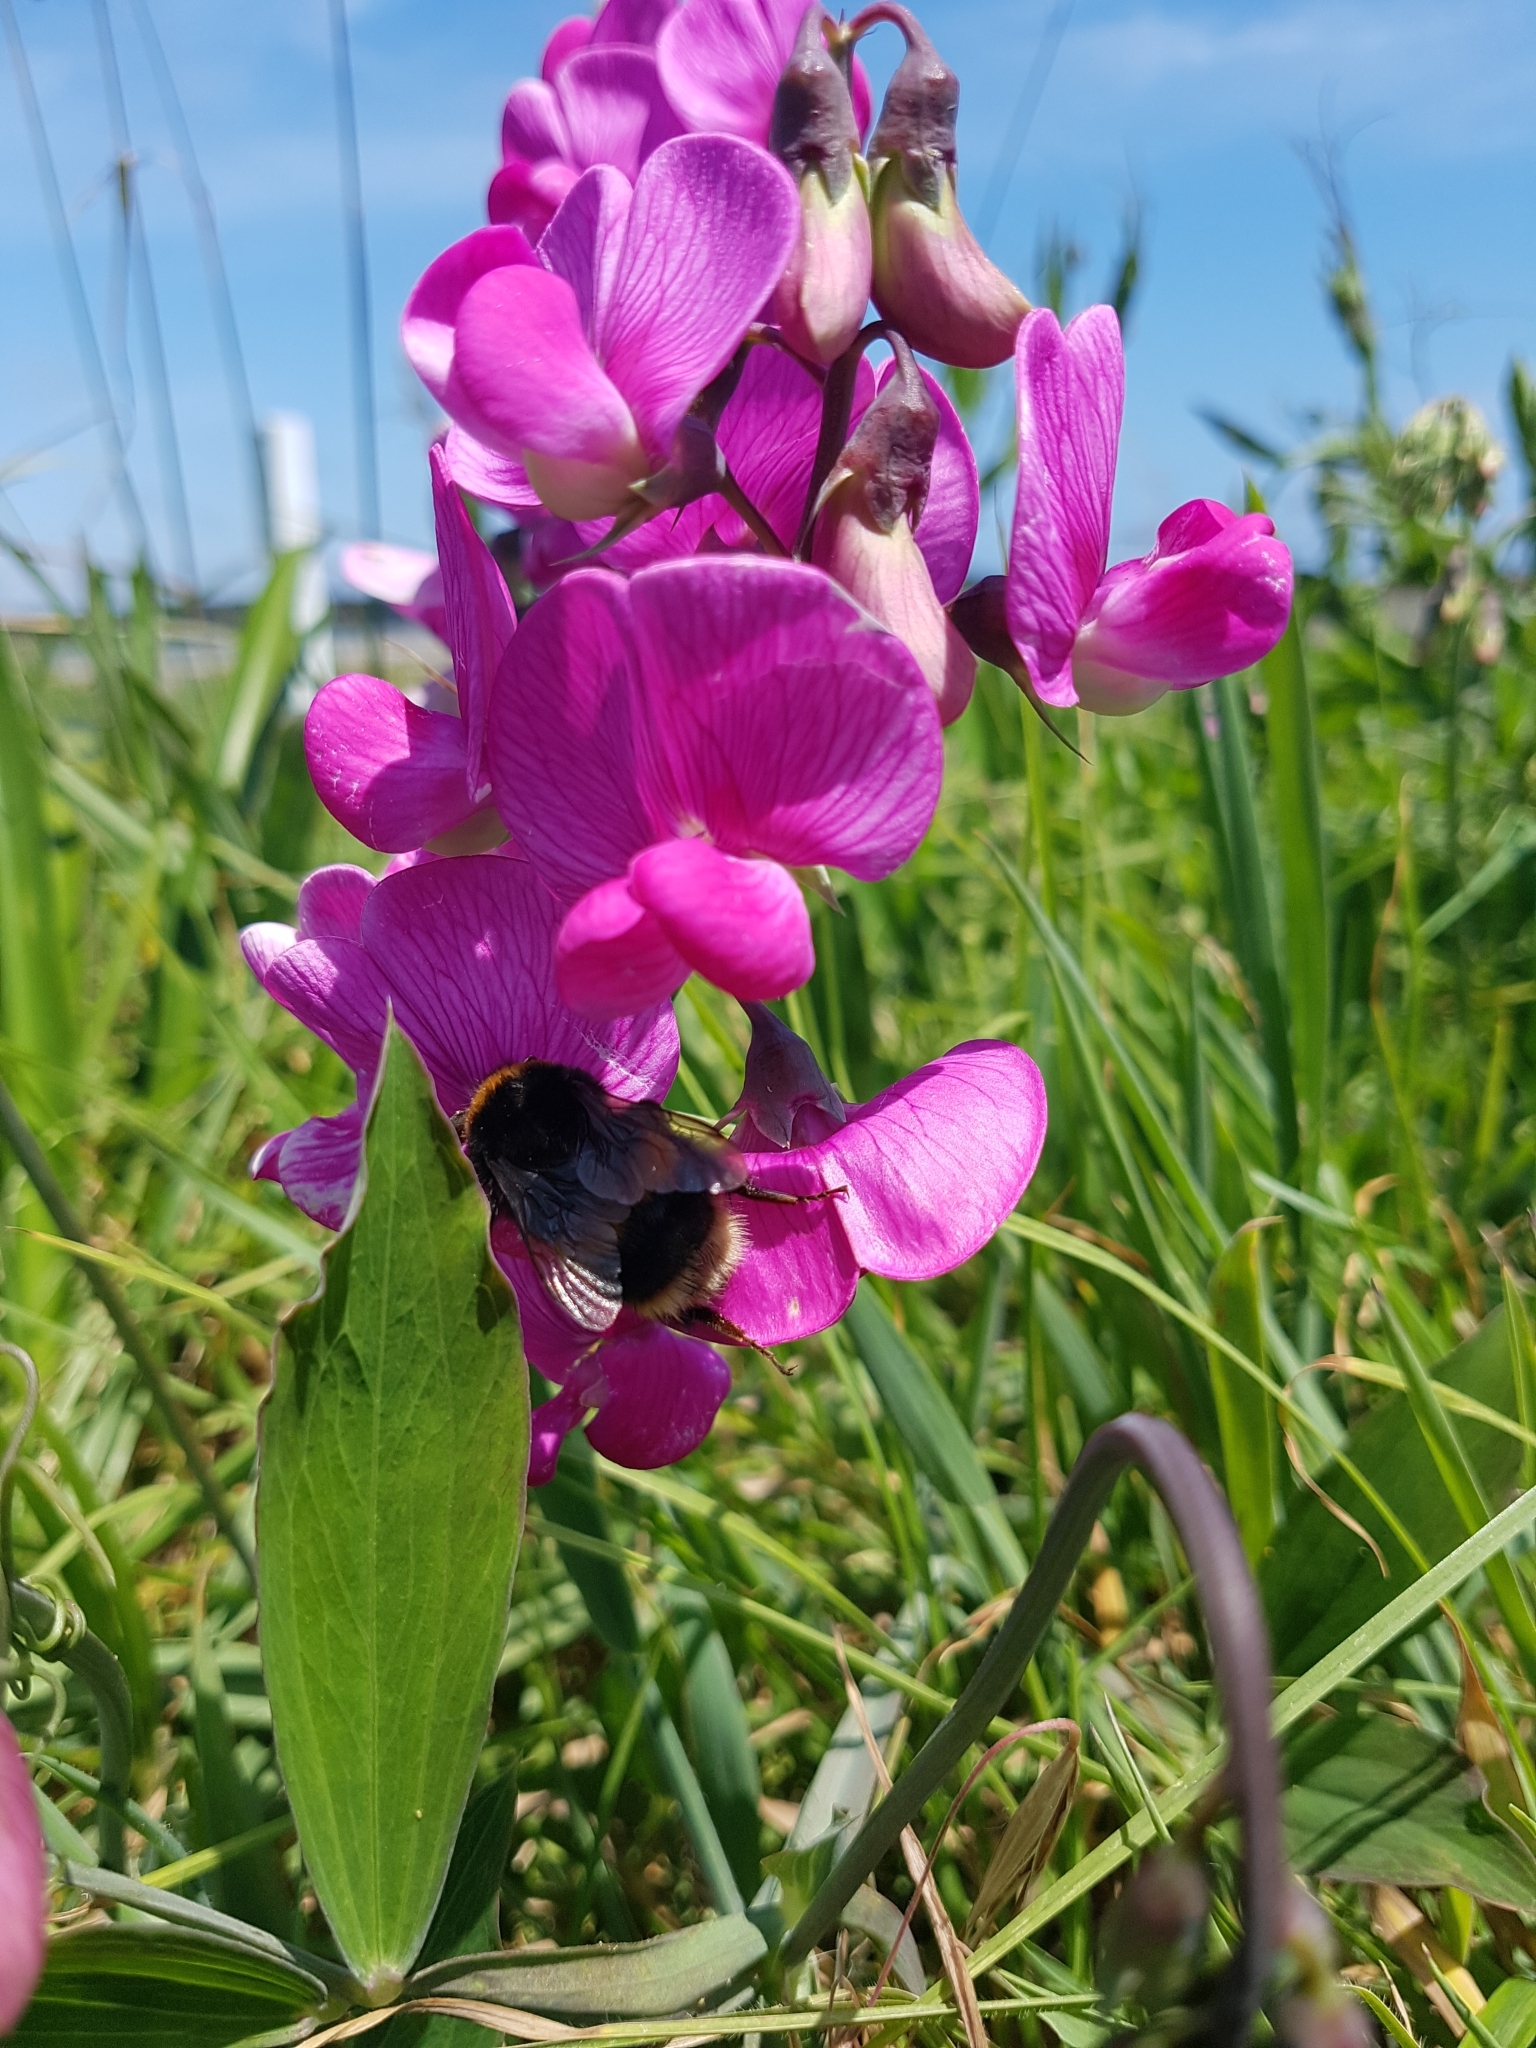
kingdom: Animalia
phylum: Arthropoda
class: Insecta
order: Hymenoptera
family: Apidae
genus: Bombus
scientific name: Bombus terrestris
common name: Buff-tailed bumblebee
